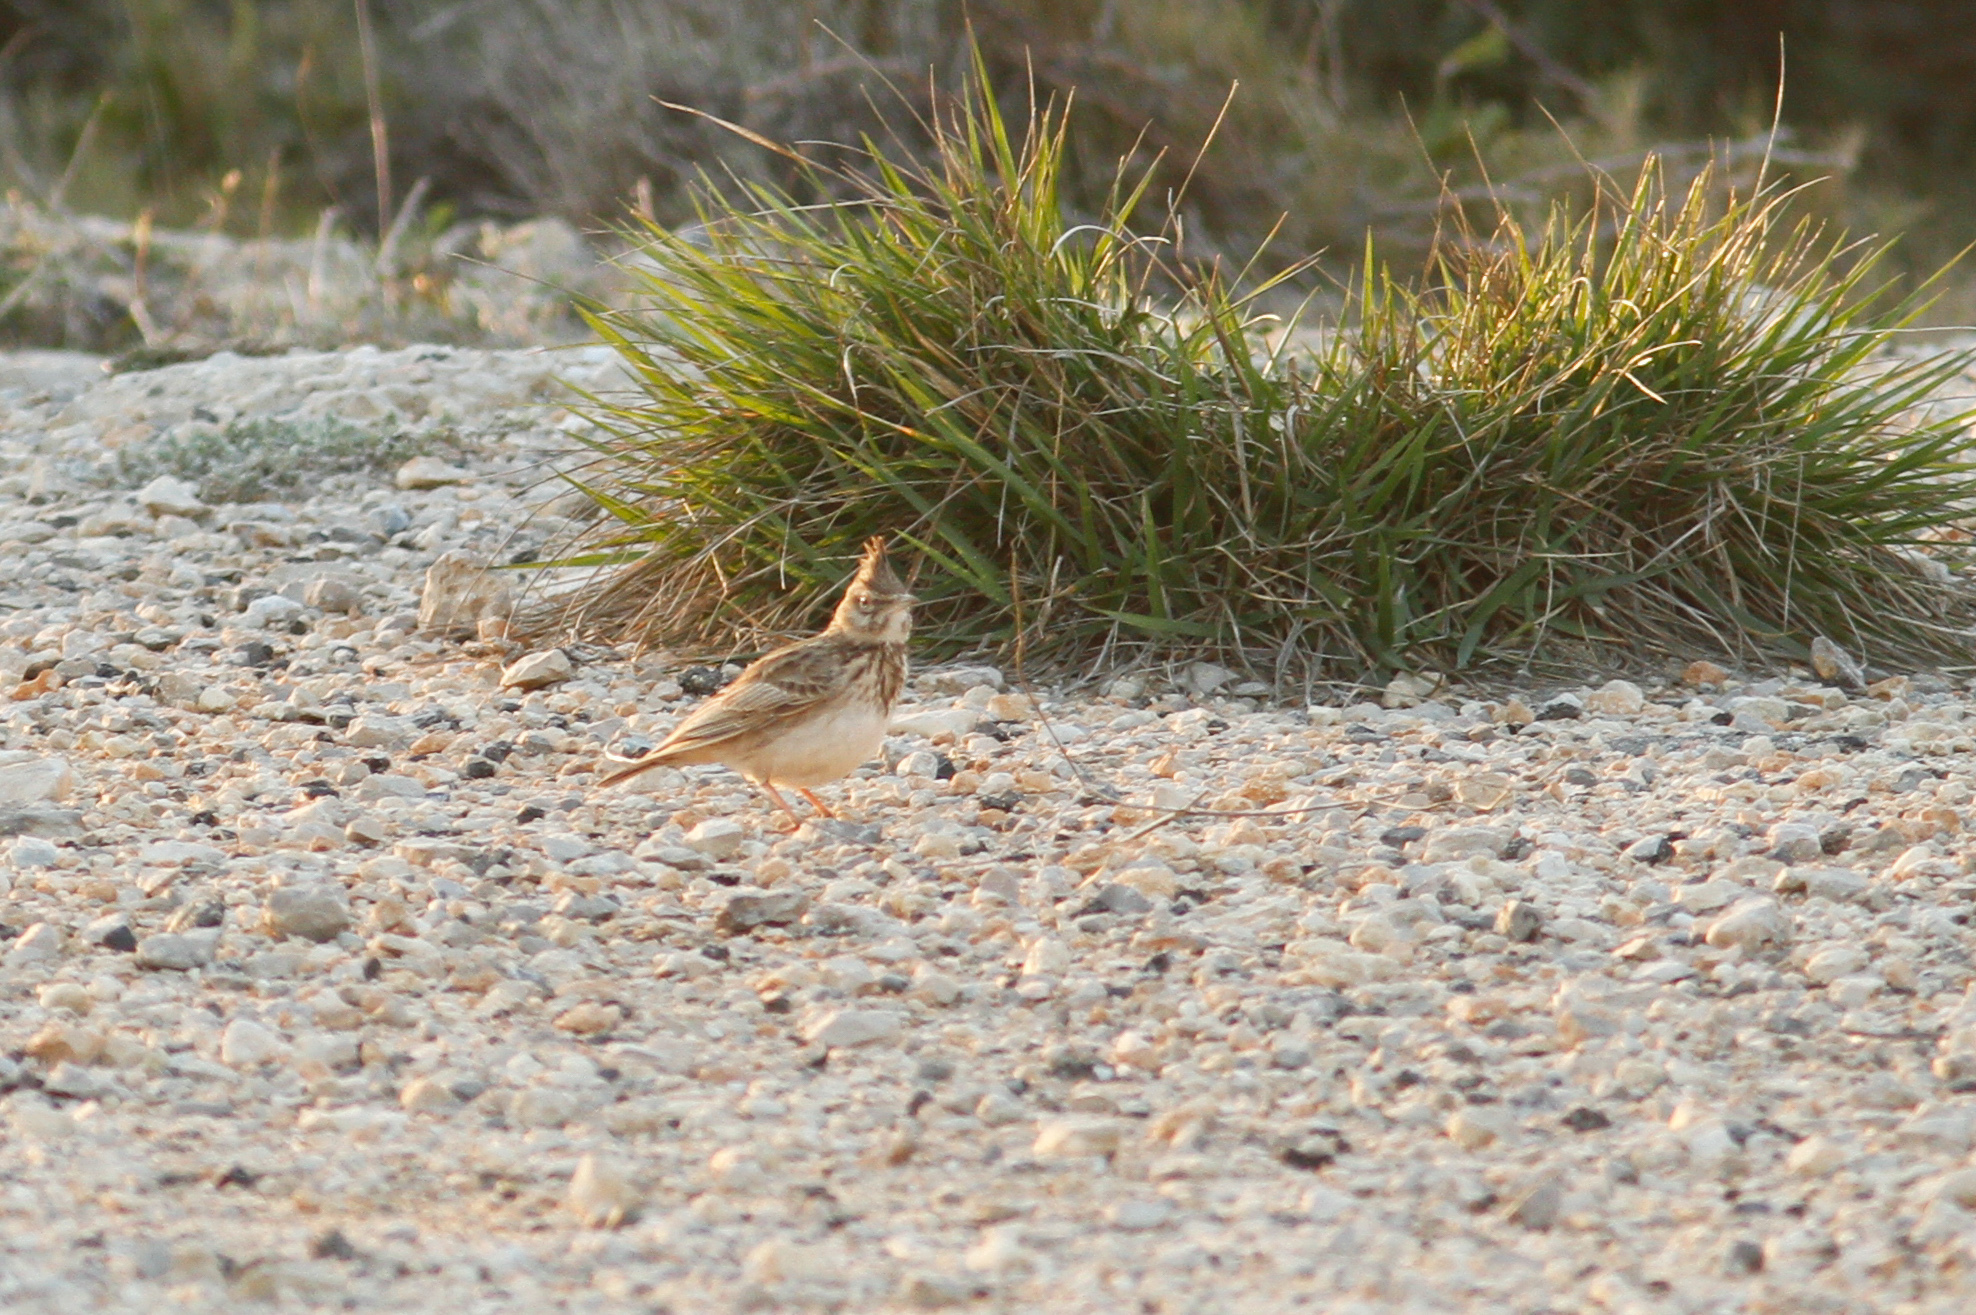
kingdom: Animalia
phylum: Chordata
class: Aves
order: Passeriformes
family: Alaudidae
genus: Galerida
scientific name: Galerida cristata
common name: Crested lark
